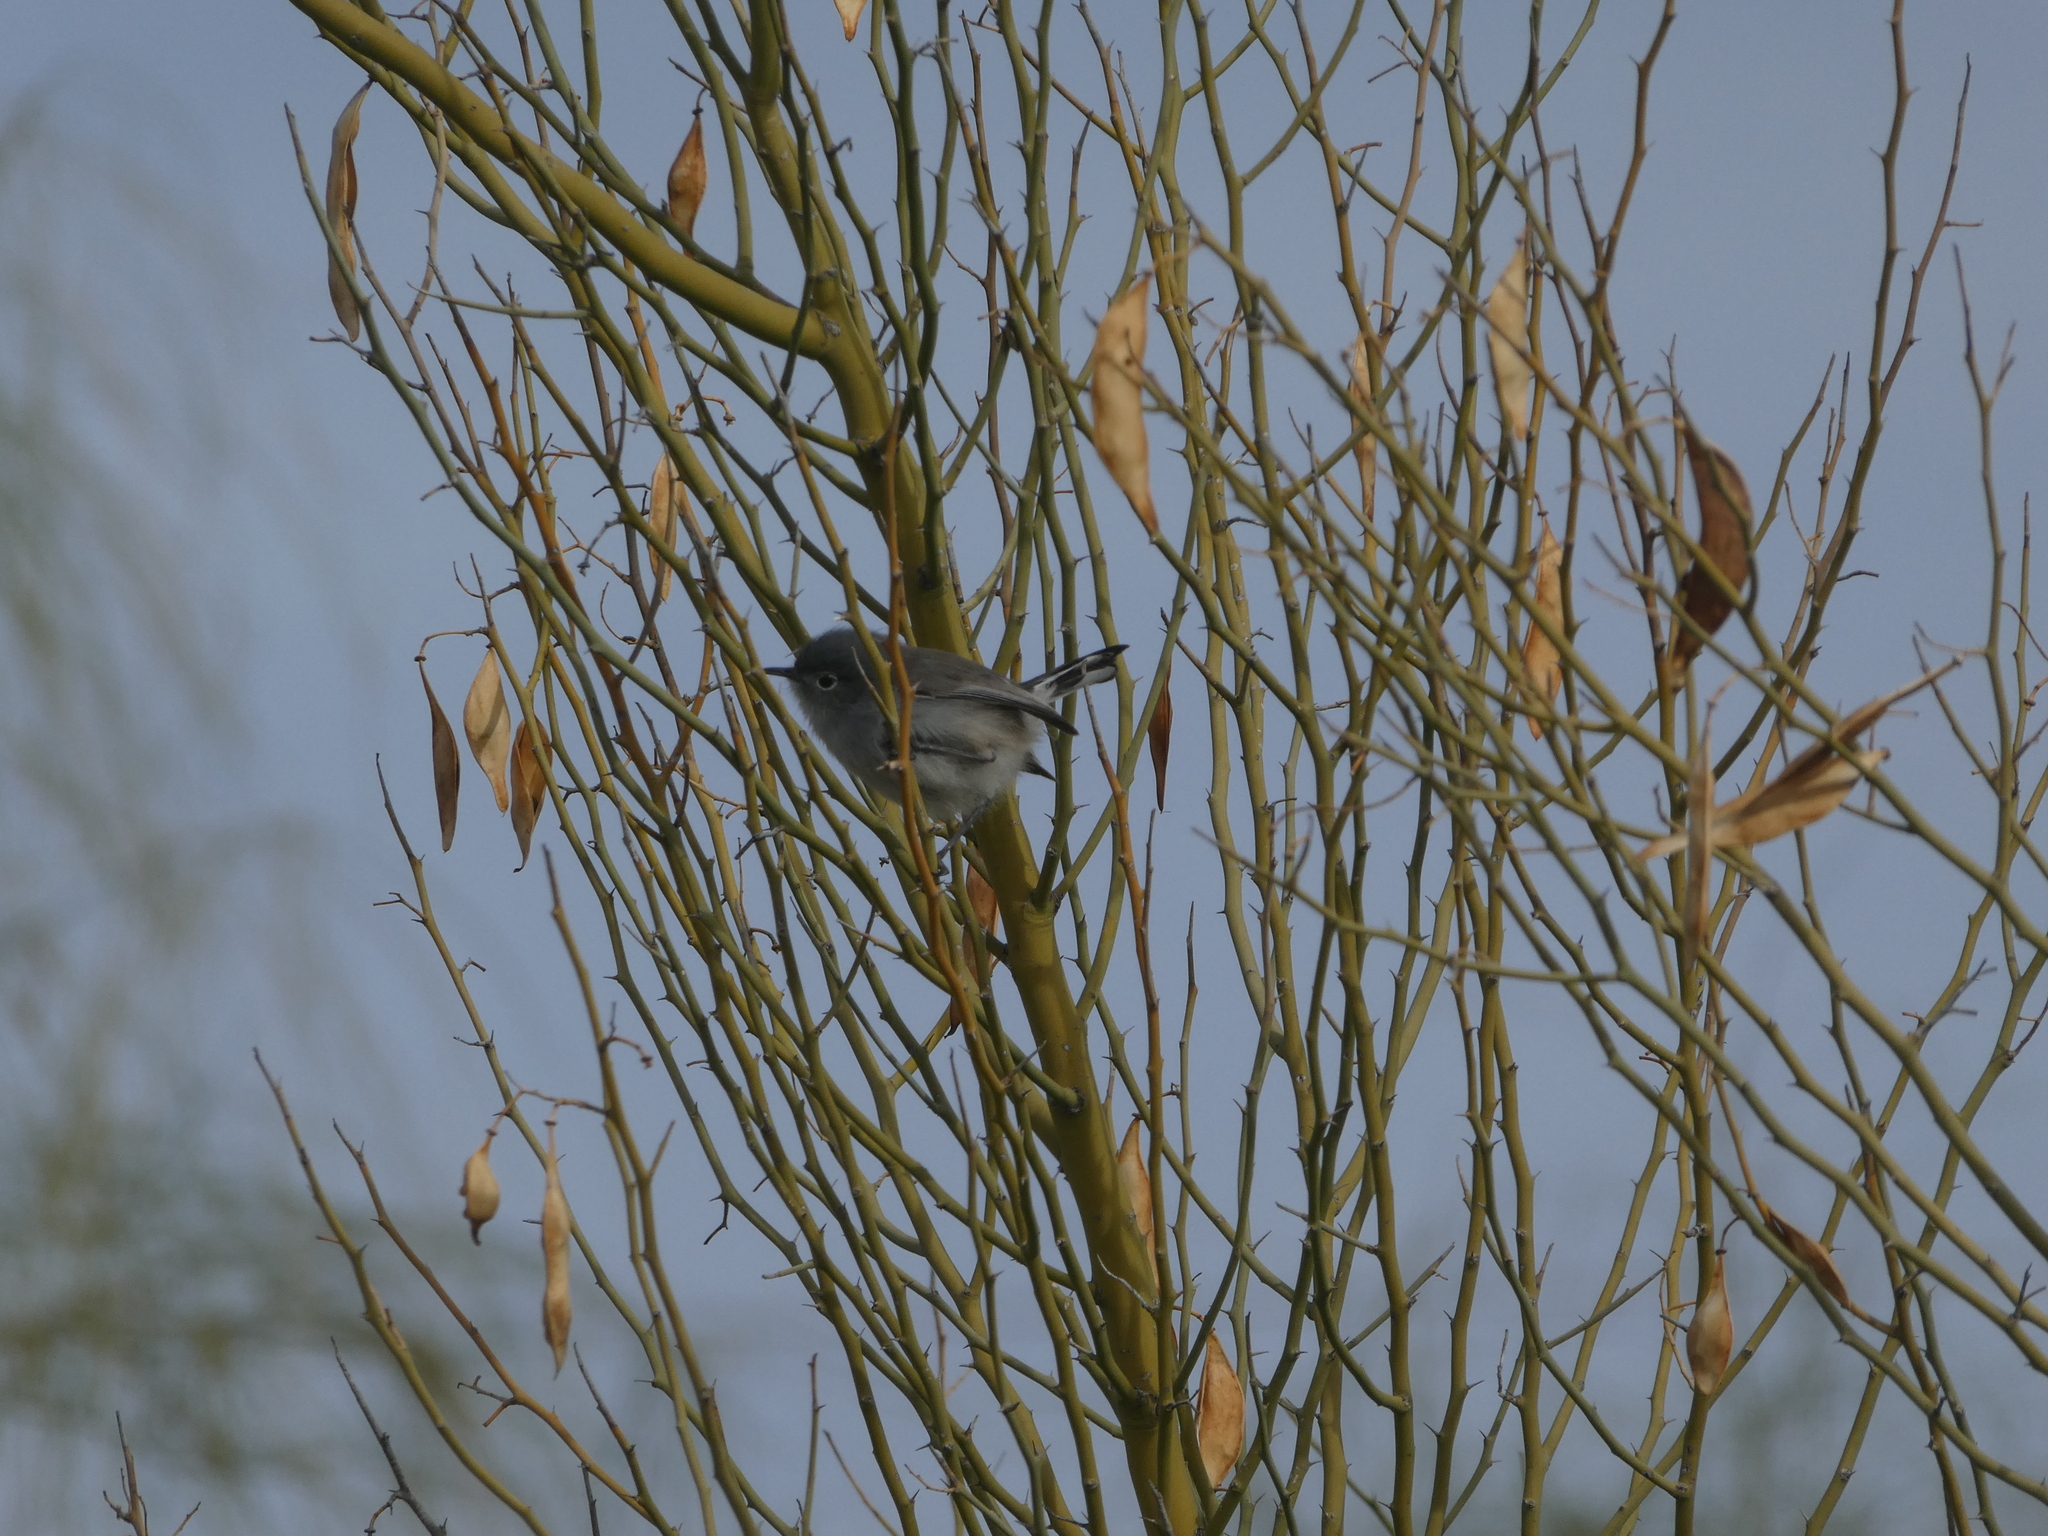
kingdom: Animalia
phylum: Chordata
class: Aves
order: Passeriformes
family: Polioptilidae
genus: Polioptila
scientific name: Polioptila melanura
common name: Black-tailed gnatcatcher
